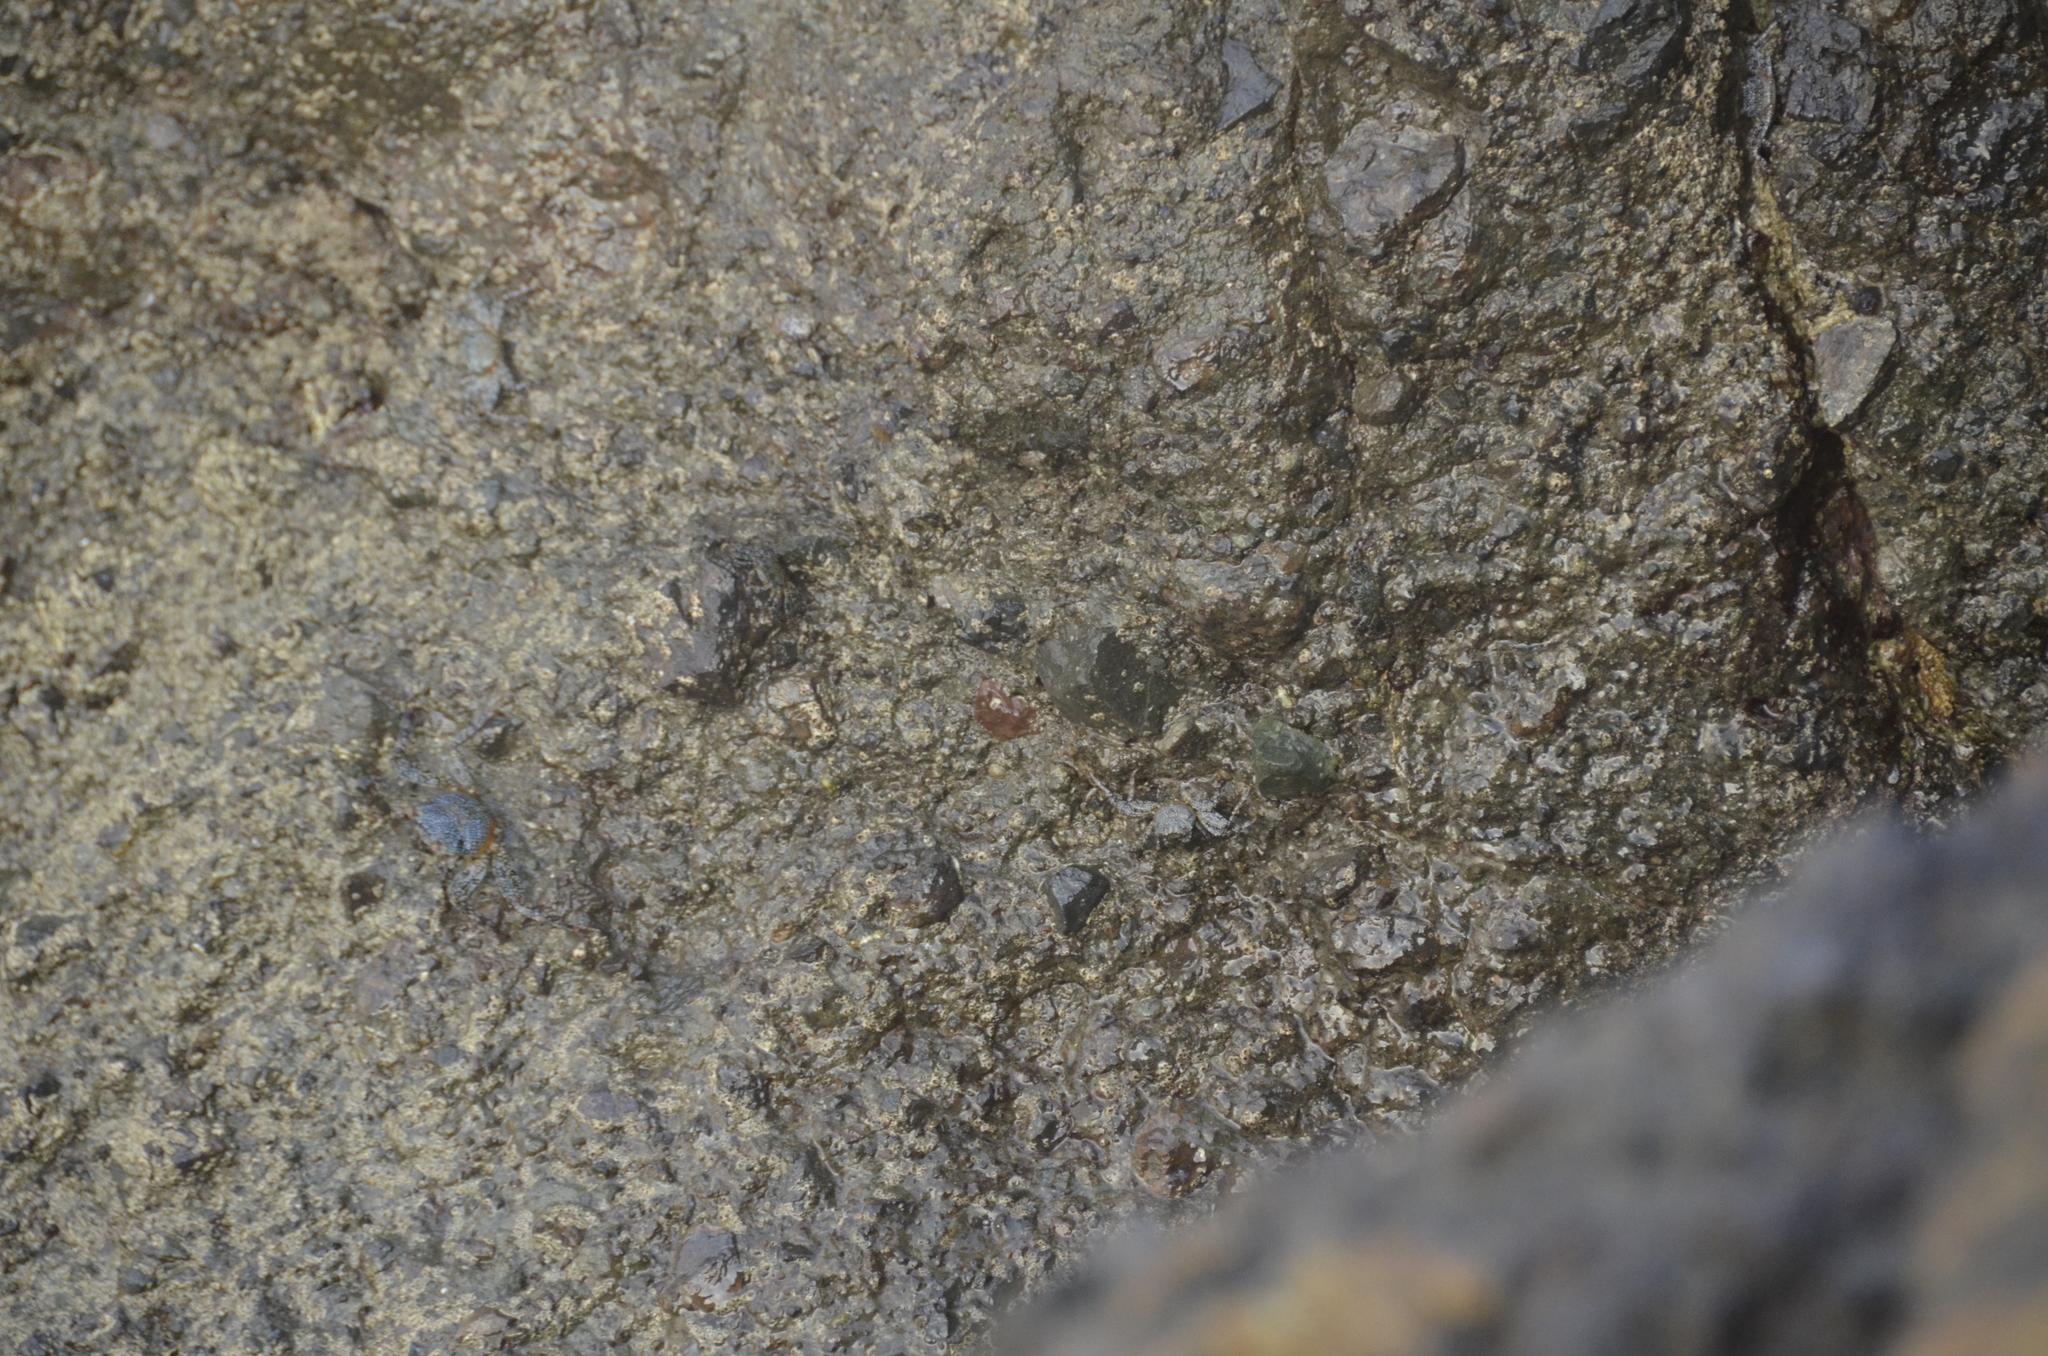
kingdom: Animalia
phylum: Arthropoda
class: Malacostraca
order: Decapoda
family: Grapsidae
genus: Grapsus
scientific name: Grapsus grapsus
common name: Sally lightfoot
